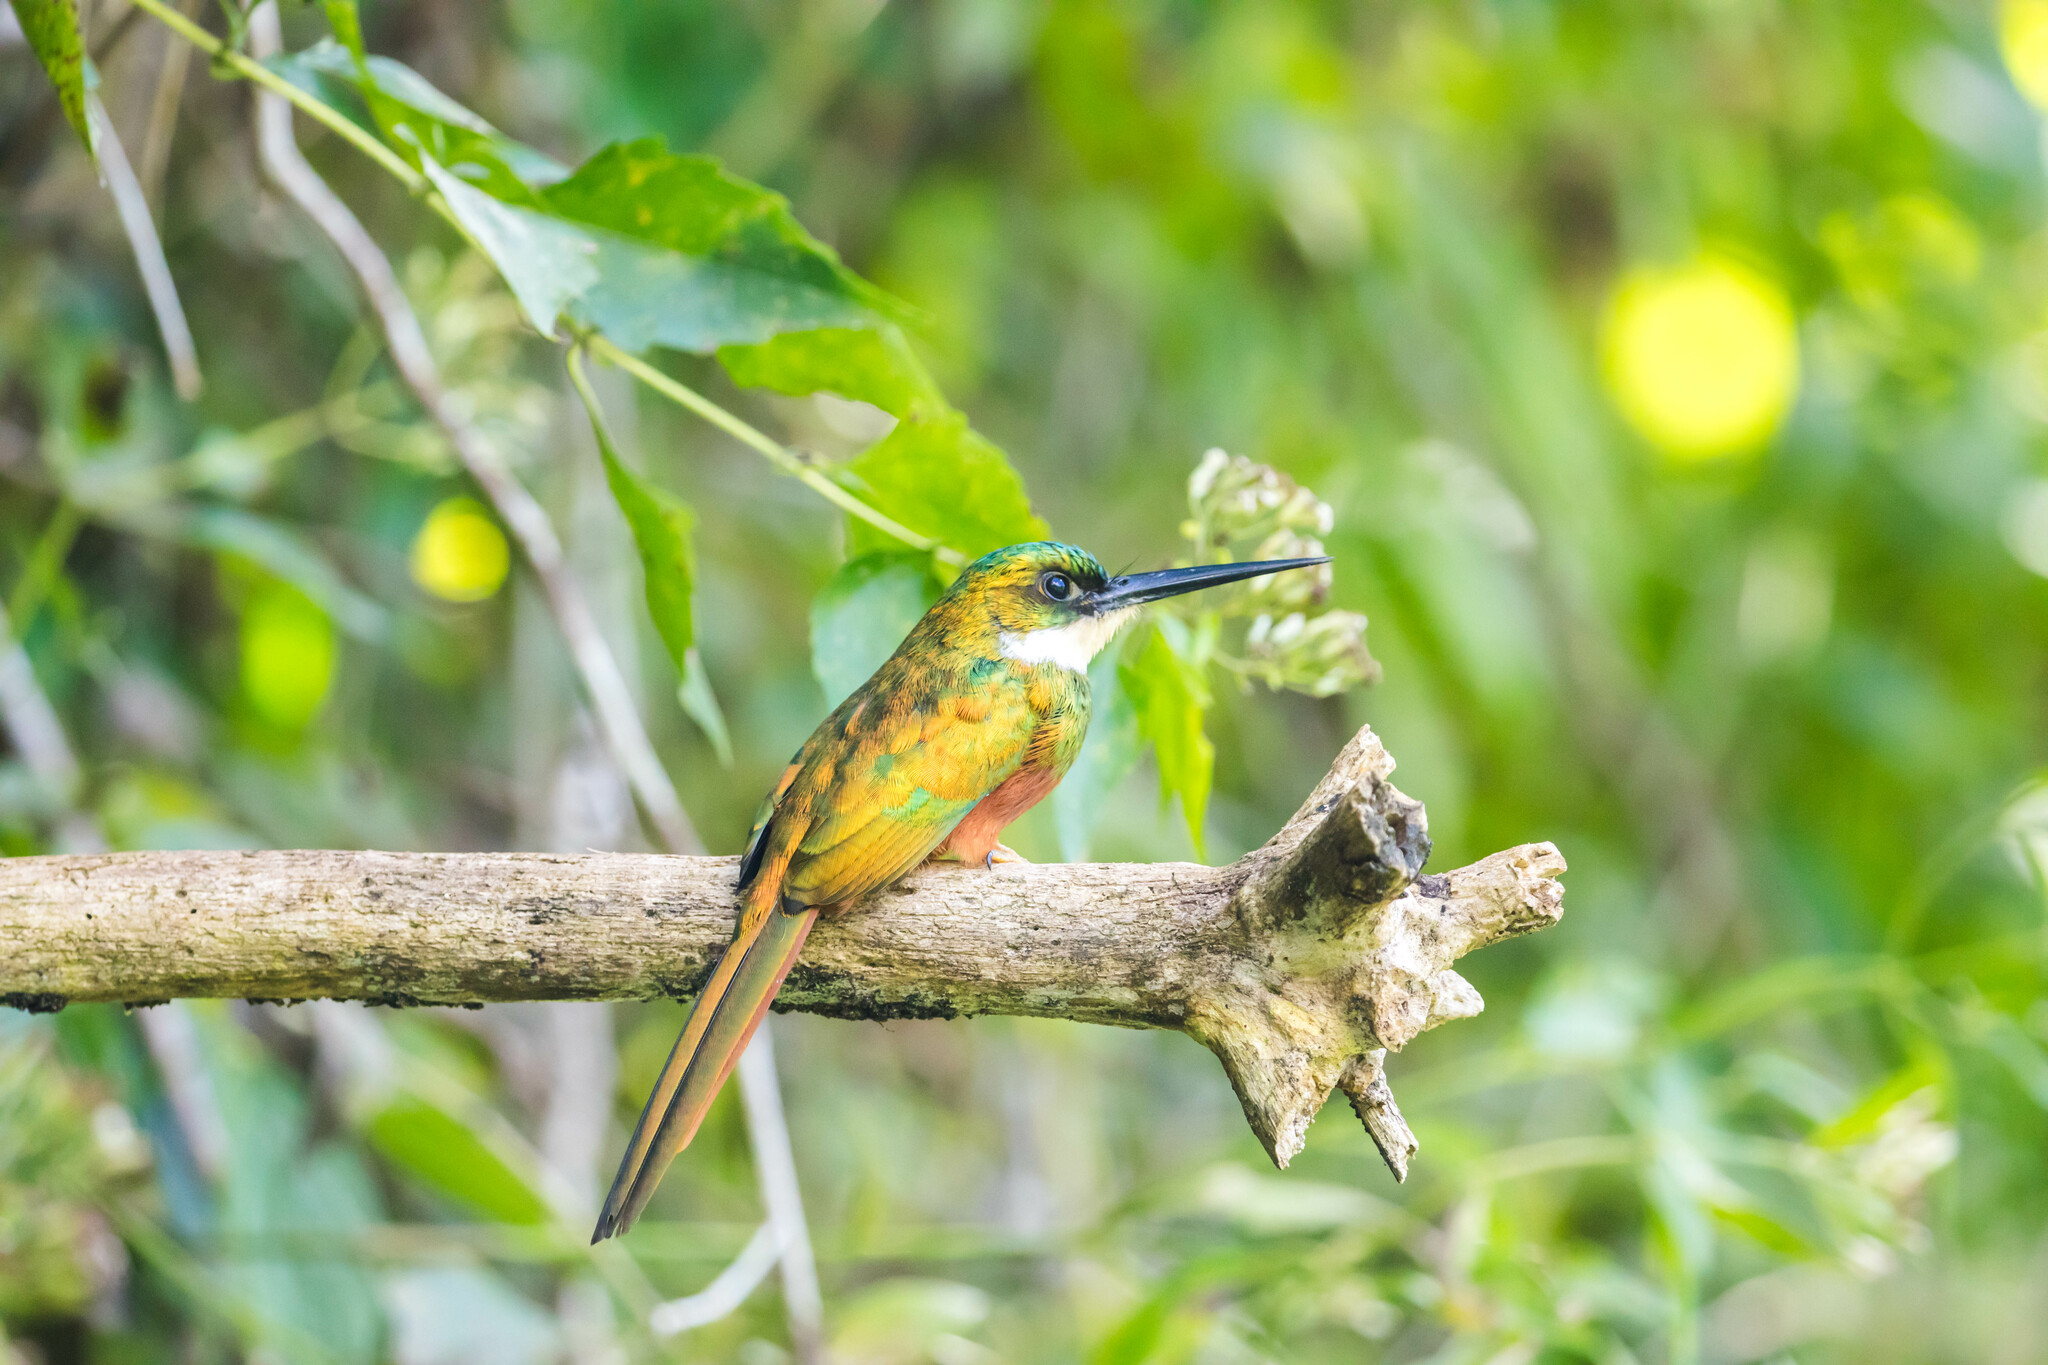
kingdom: Animalia
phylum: Chordata
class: Aves
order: Piciformes
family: Galbulidae
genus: Galbula
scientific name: Galbula ruficauda
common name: Rufous-tailed jacamar
